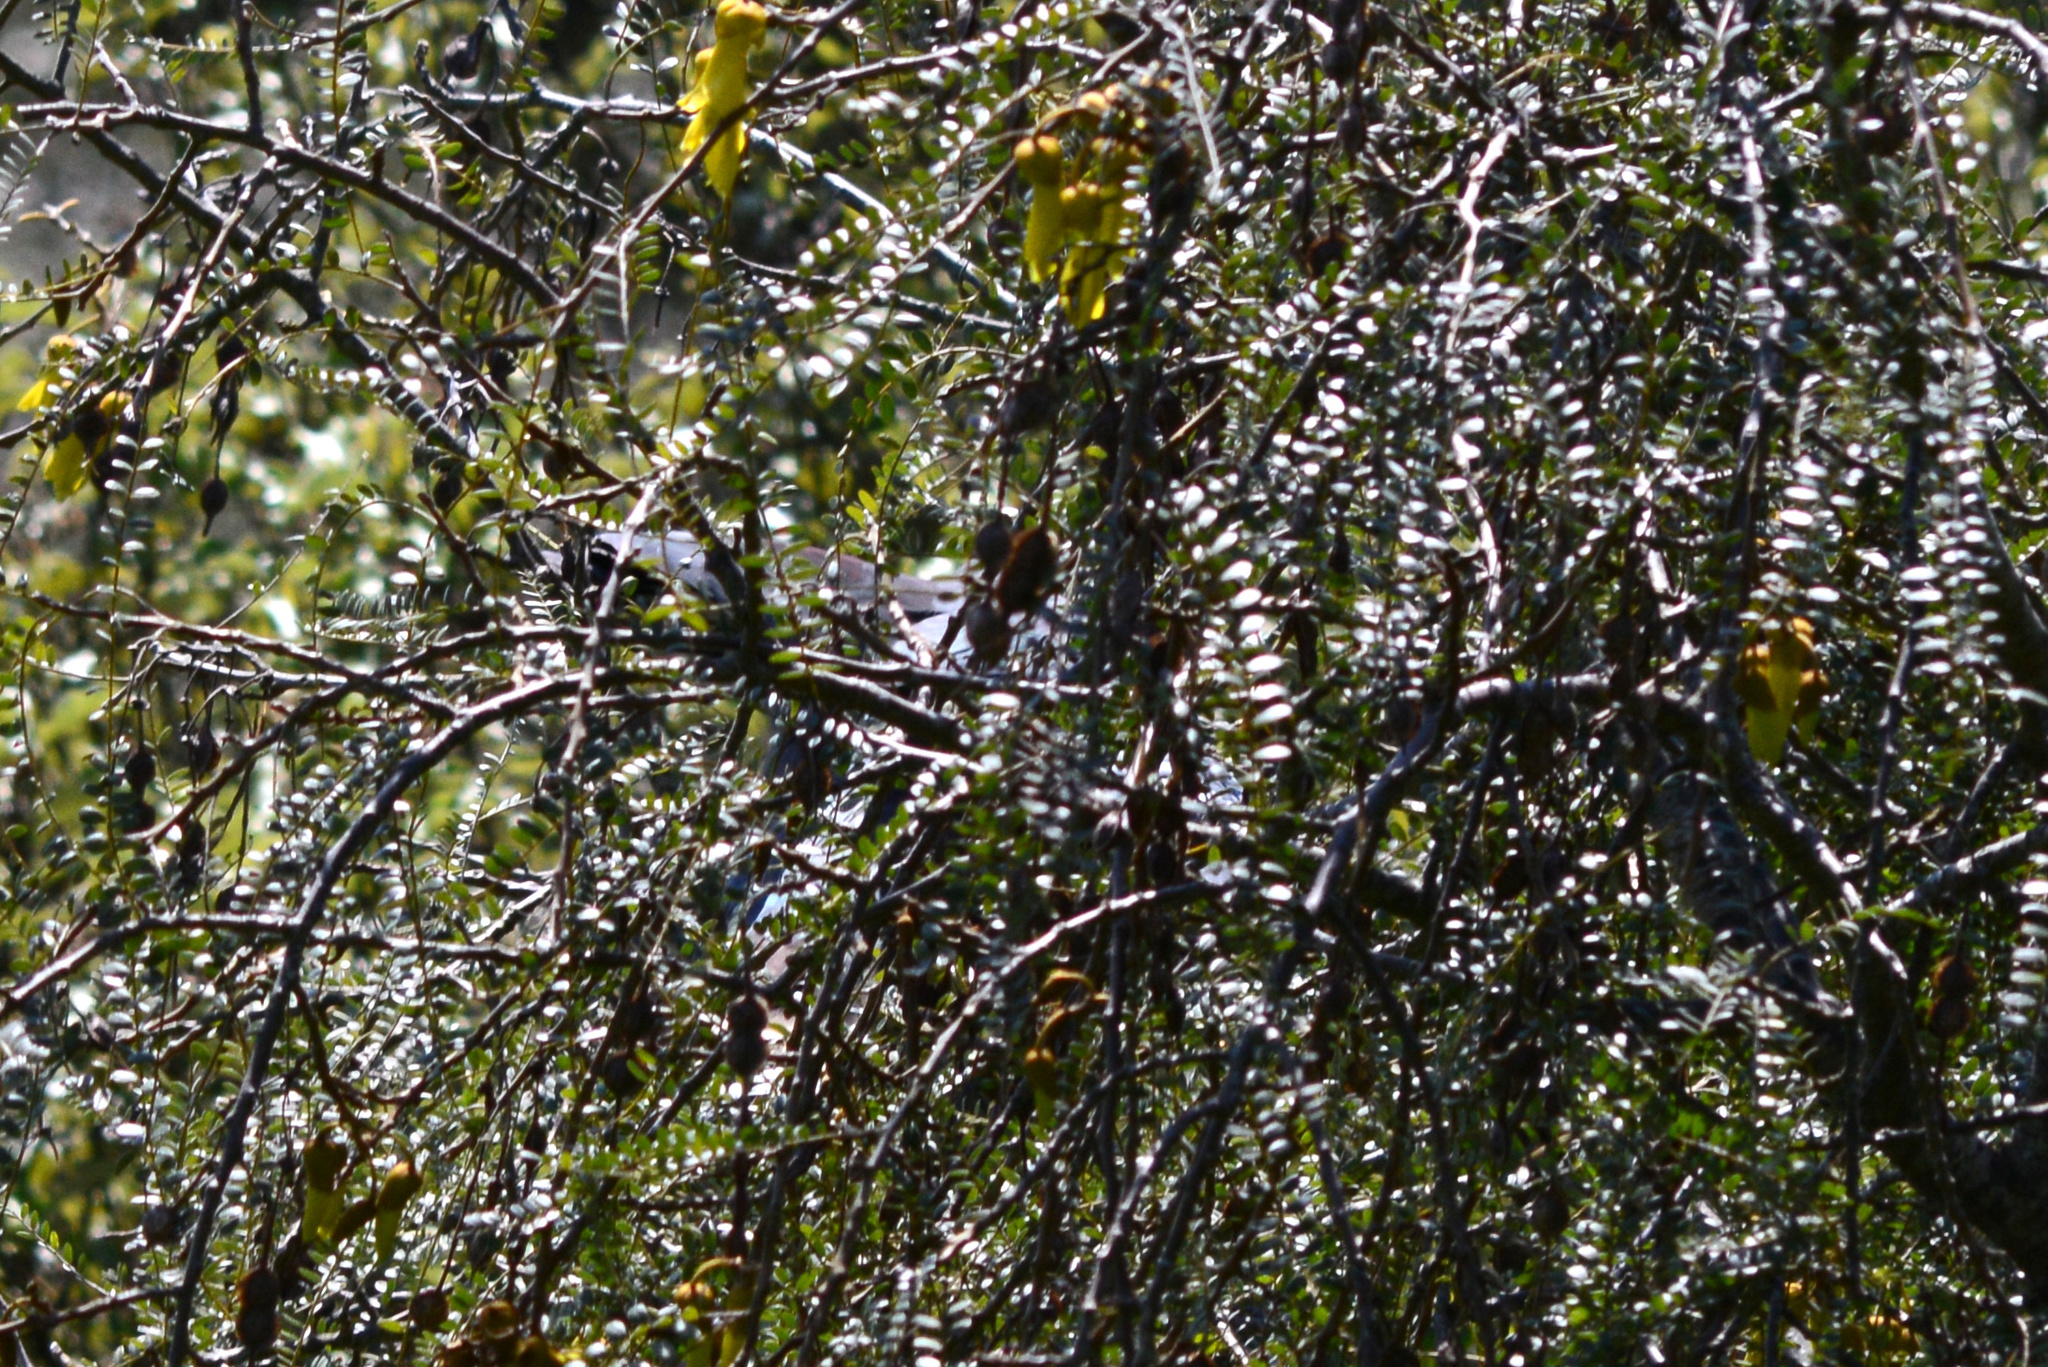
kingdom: Animalia
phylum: Chordata
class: Aves
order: Columbiformes
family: Columbidae
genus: Hemiphaga
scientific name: Hemiphaga novaeseelandiae
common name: New zealand pigeon
